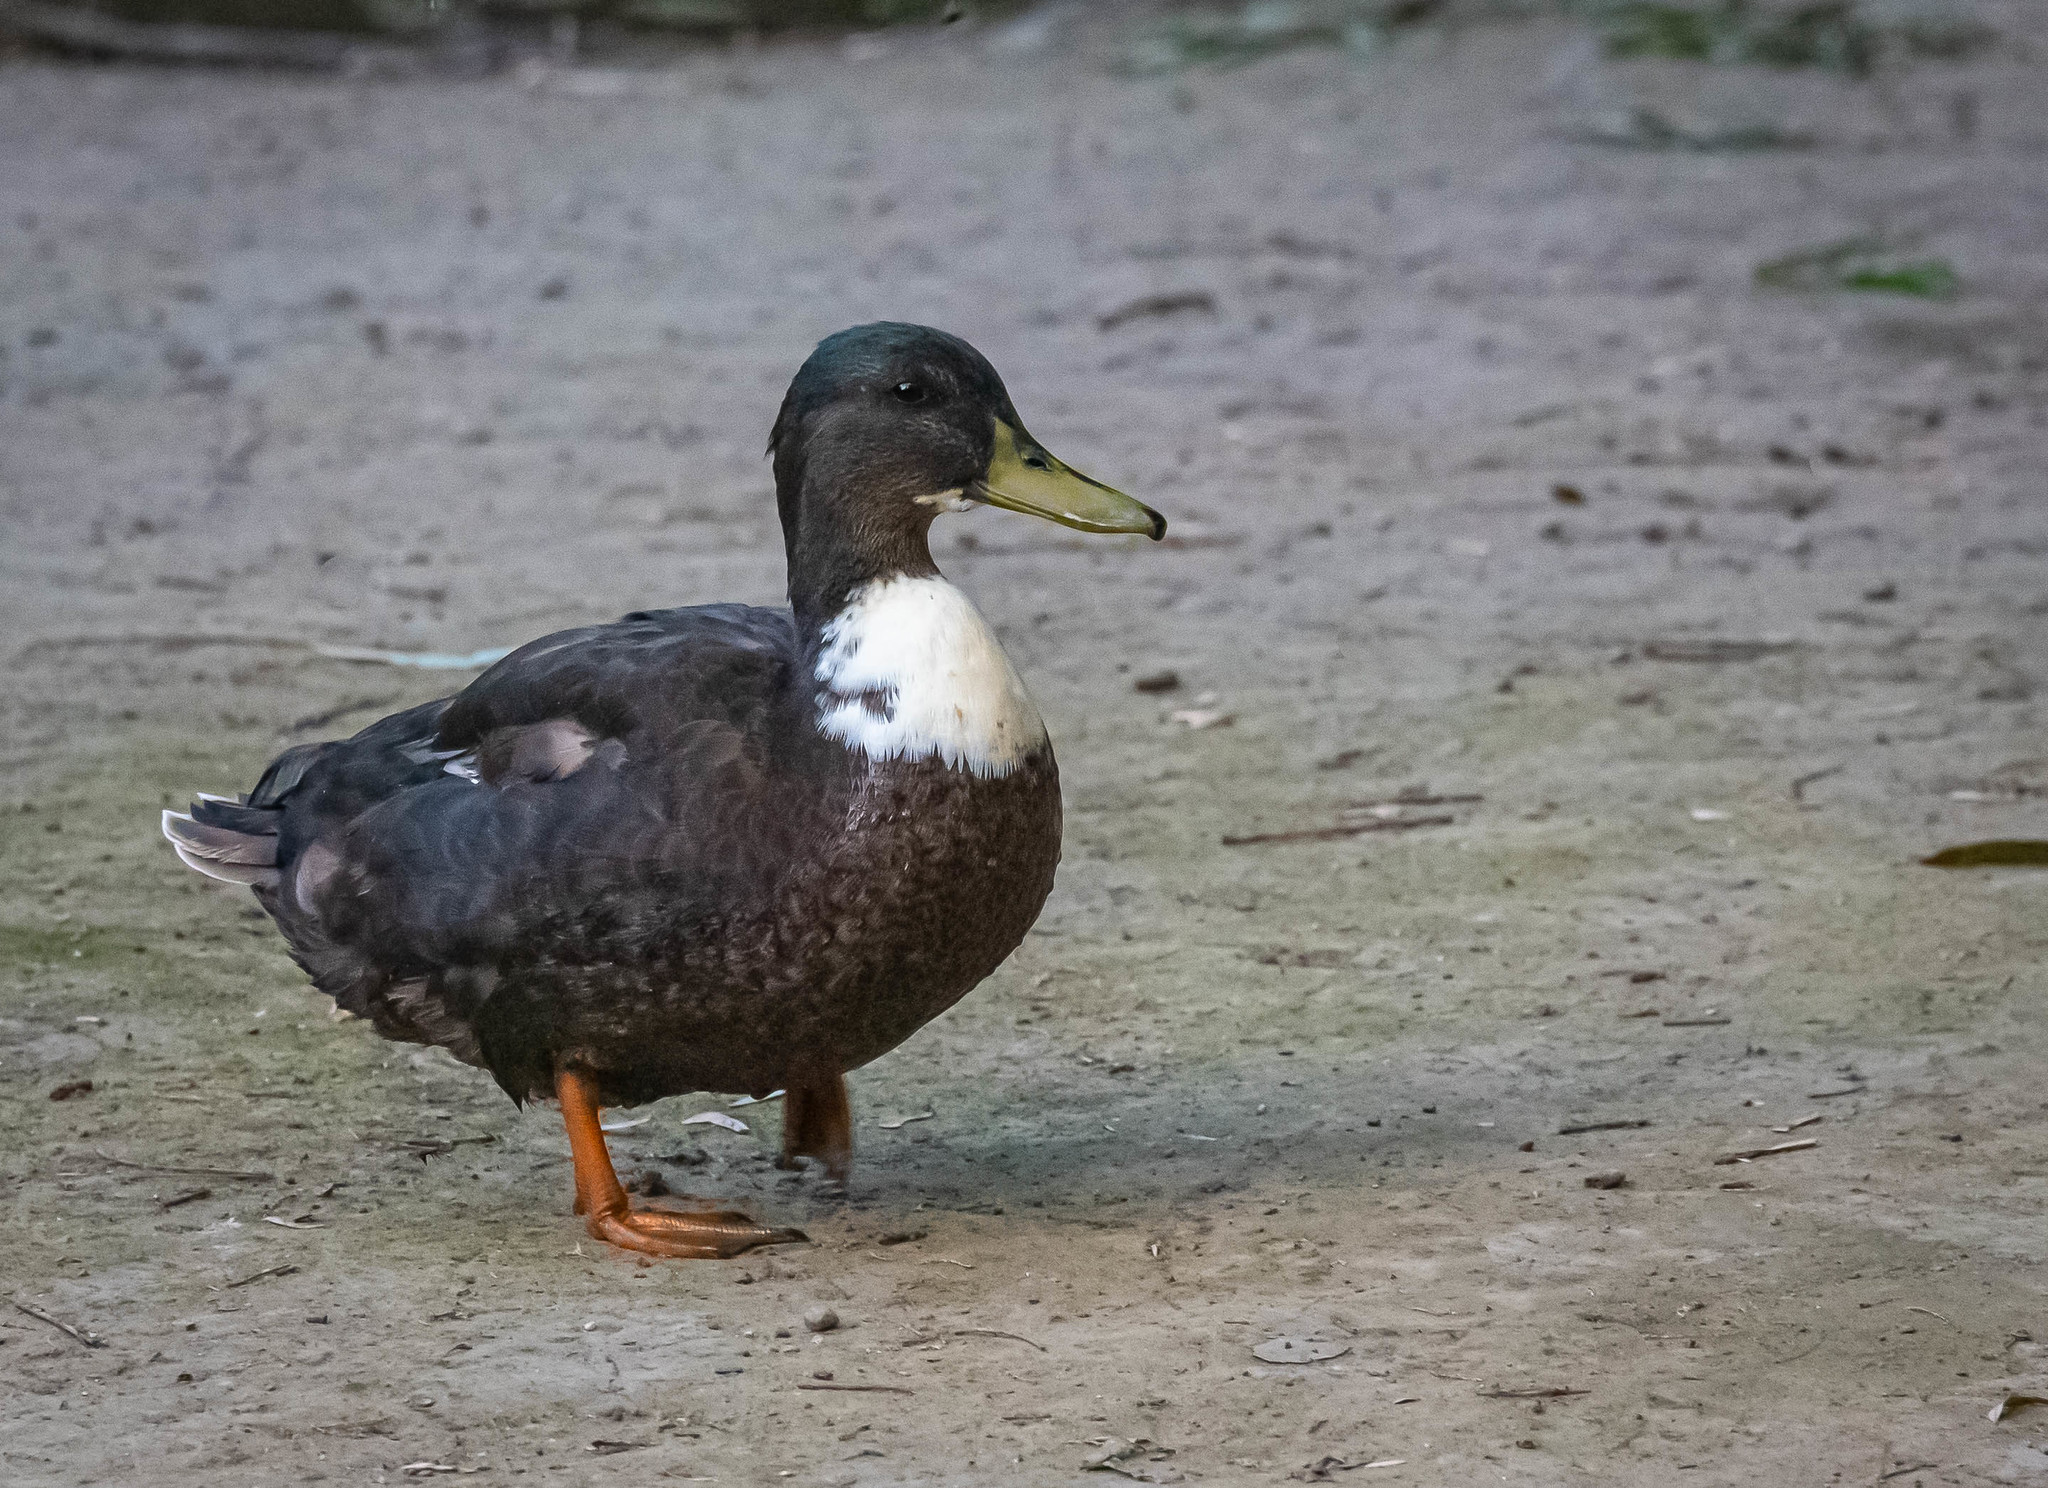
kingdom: Animalia
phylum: Chordata
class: Aves
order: Anseriformes
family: Anatidae
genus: Anas
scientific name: Anas platyrhynchos
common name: Mallard
